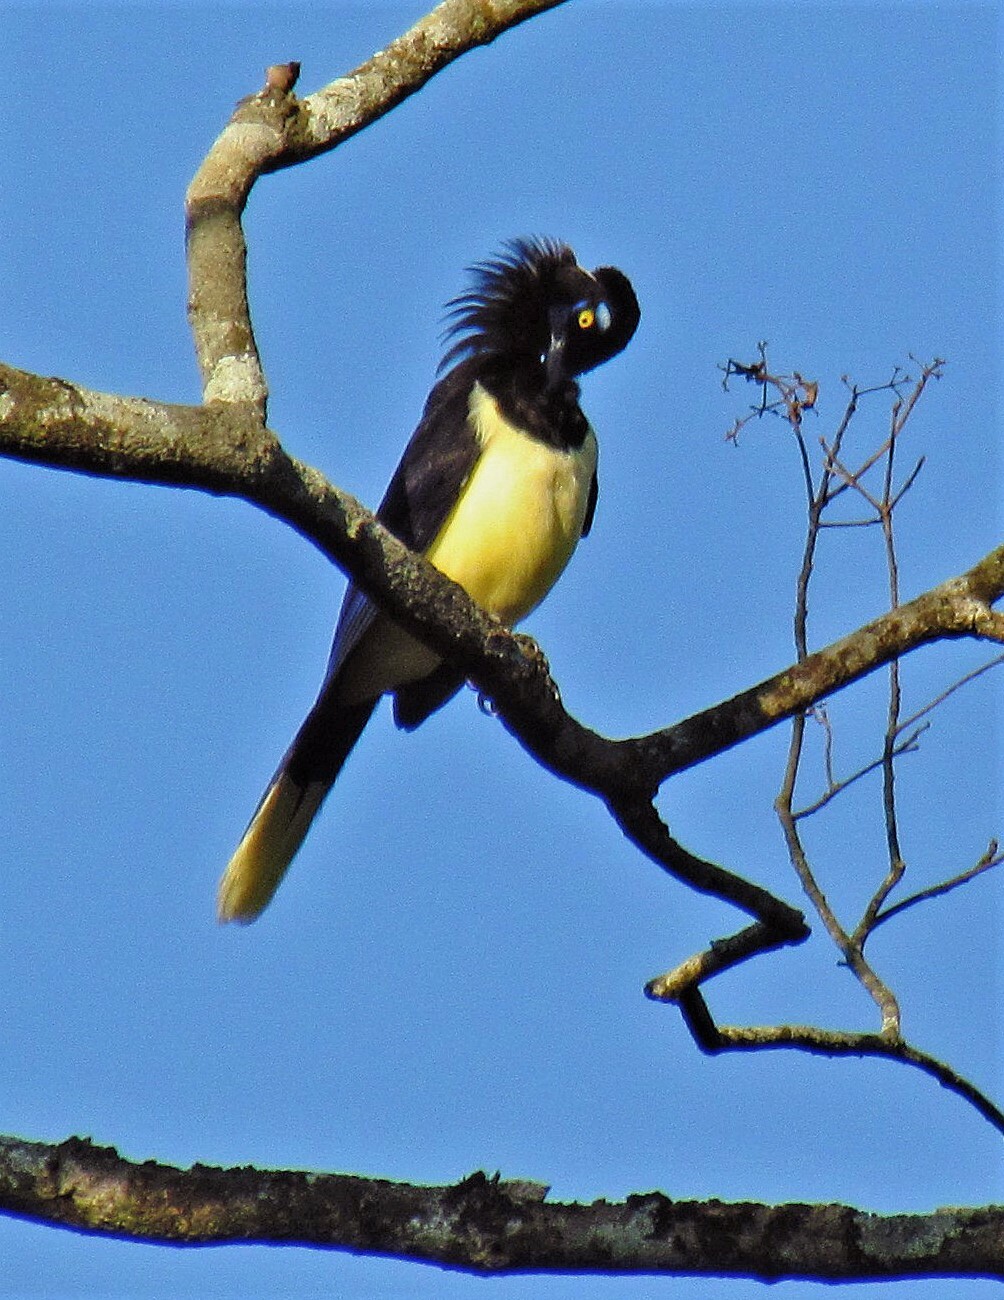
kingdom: Animalia
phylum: Chordata
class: Aves
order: Passeriformes
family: Corvidae
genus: Cyanocorax
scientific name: Cyanocorax chrysops
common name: Plush-crested jay
